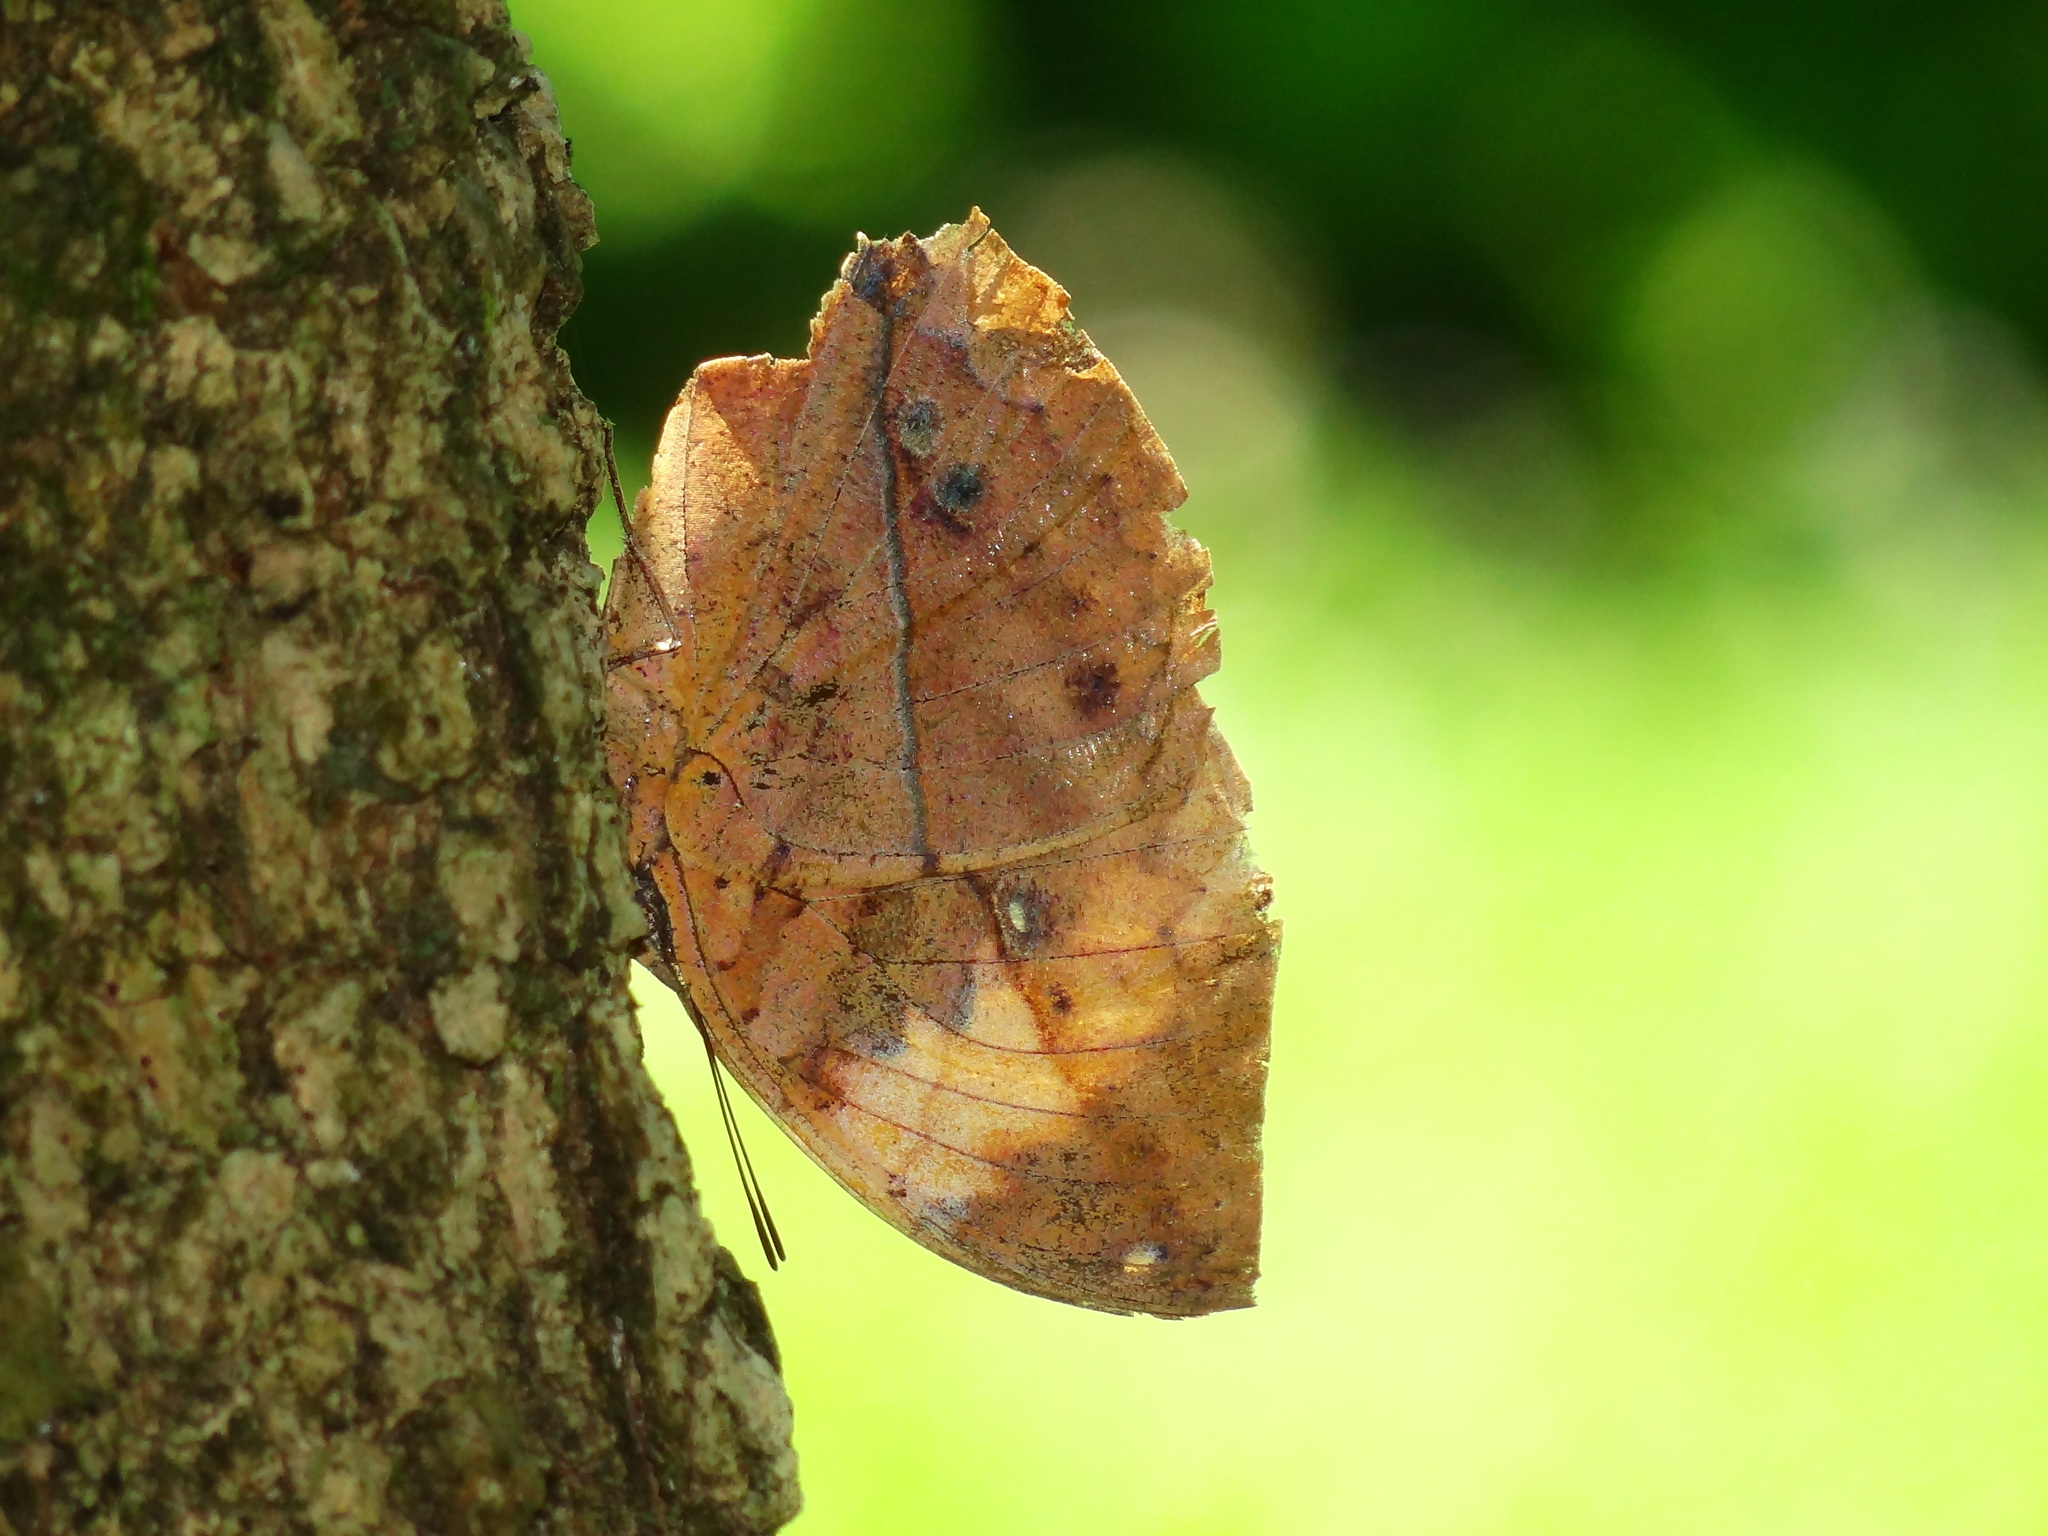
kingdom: Animalia
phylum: Arthropoda
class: Insecta
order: Lepidoptera
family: Nymphalidae
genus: Kallima
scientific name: Kallima inachus
